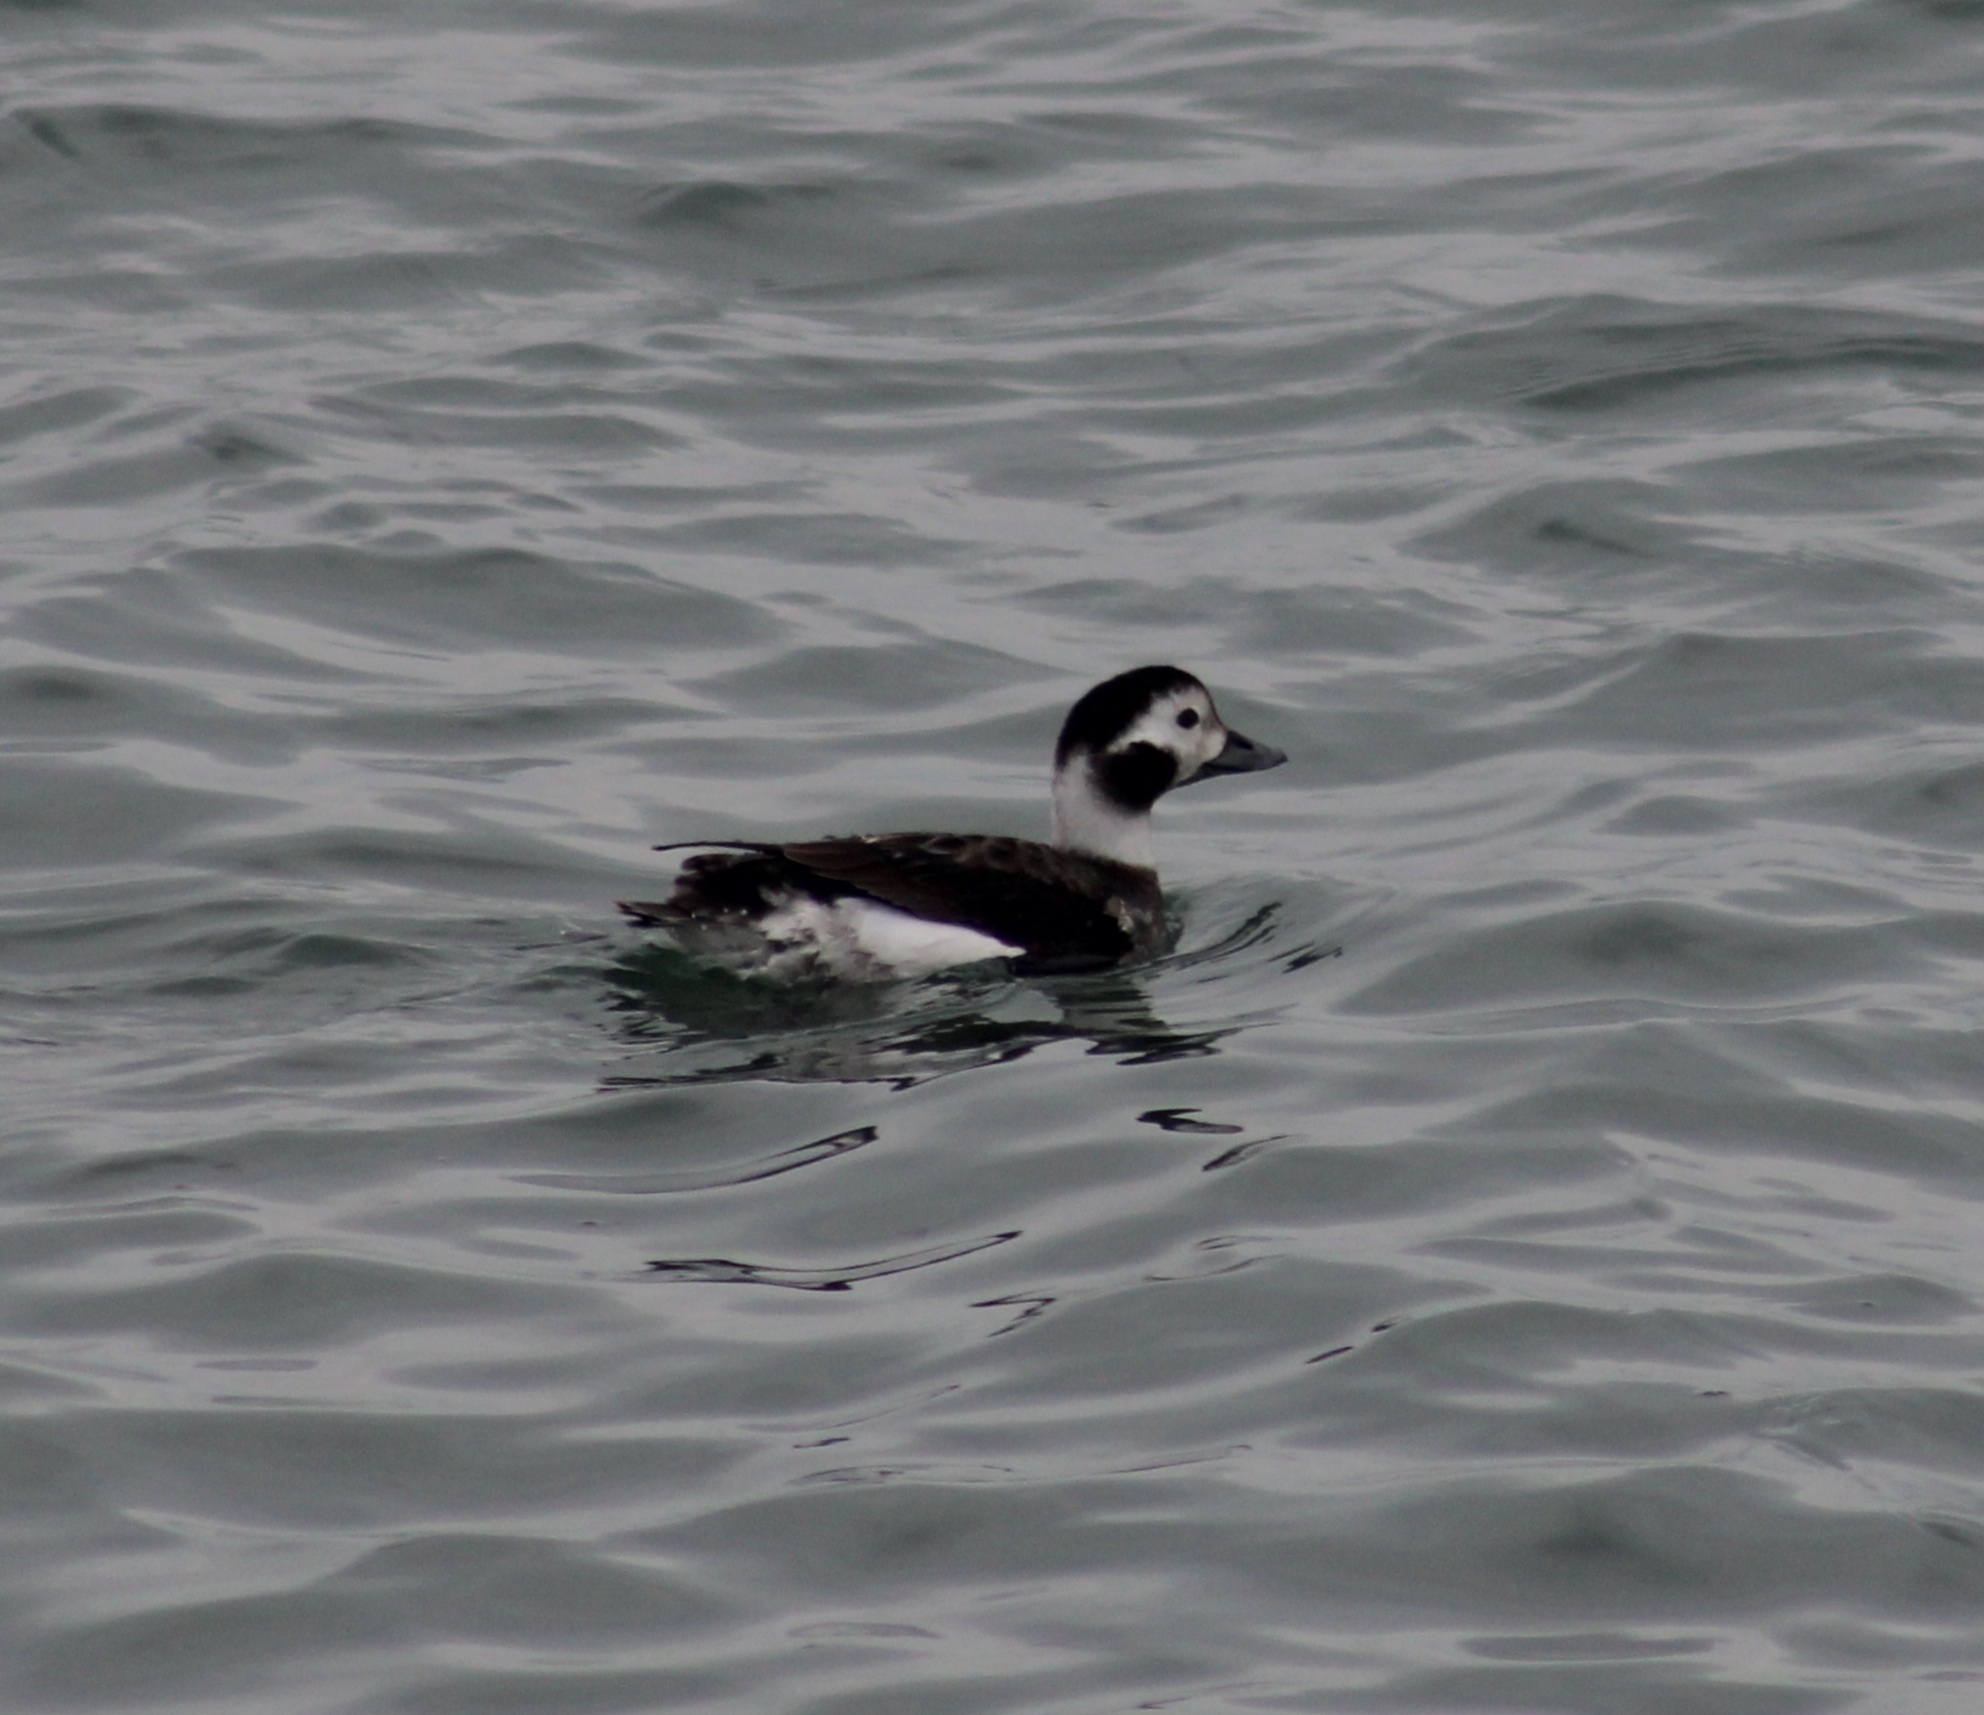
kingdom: Animalia
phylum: Chordata
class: Aves
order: Anseriformes
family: Anatidae
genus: Clangula
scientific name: Clangula hyemalis
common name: Long-tailed duck
